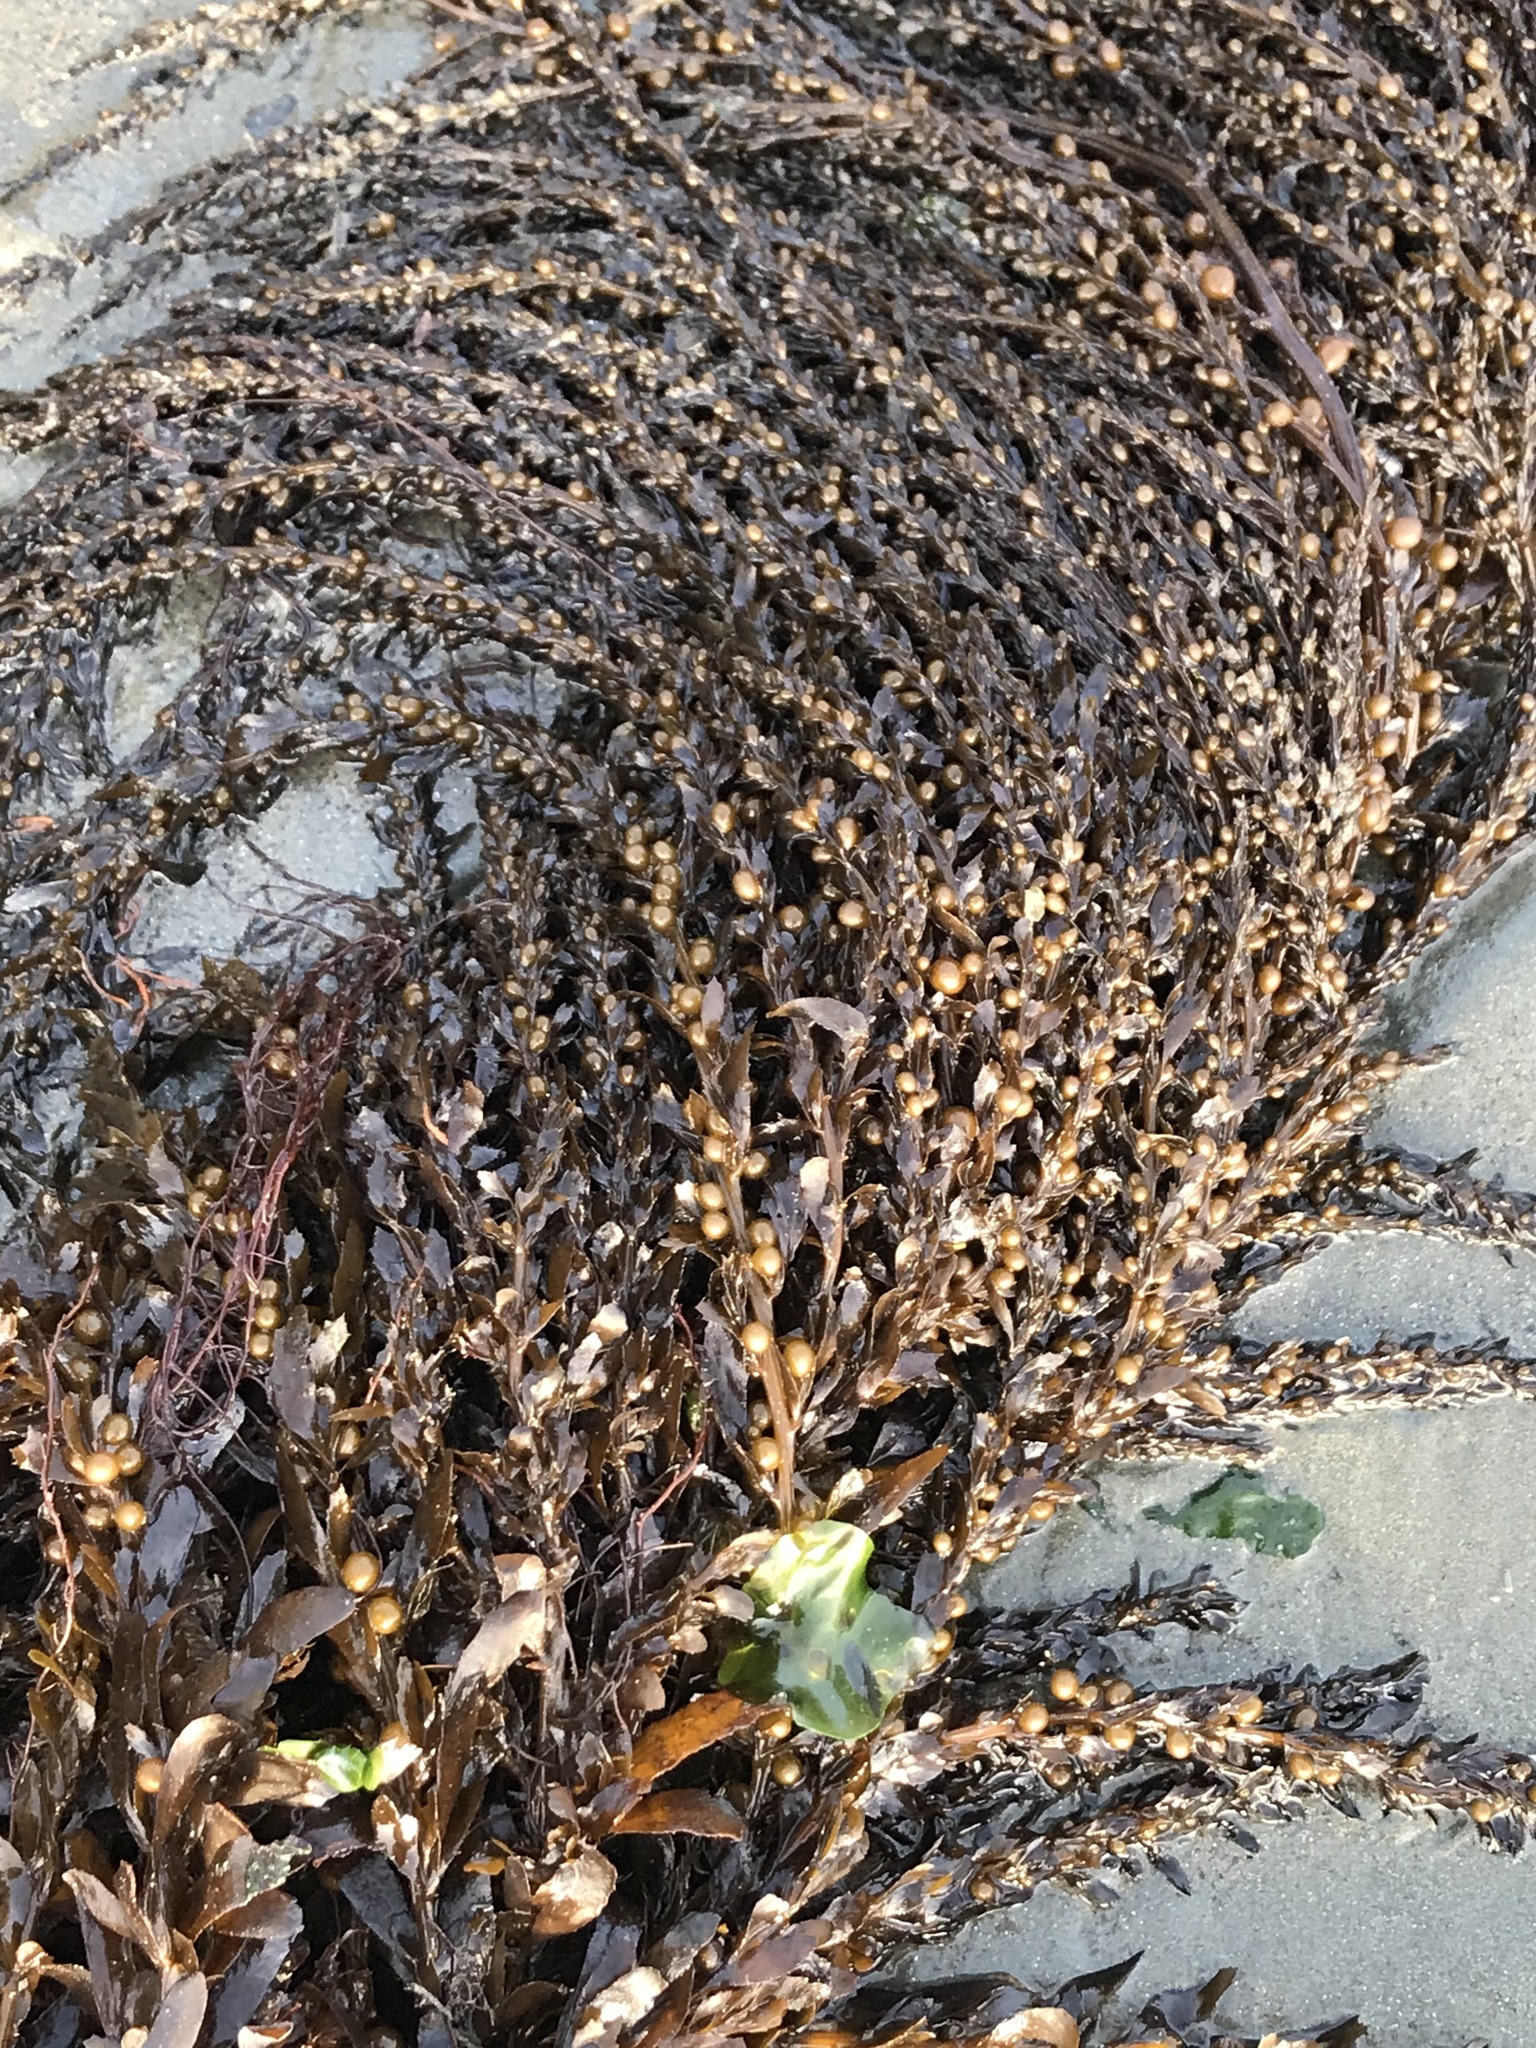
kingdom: Chromista
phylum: Ochrophyta
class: Phaeophyceae
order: Fucales
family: Sargassaceae
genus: Sargassum
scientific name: Sargassum muticum
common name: Japweed
